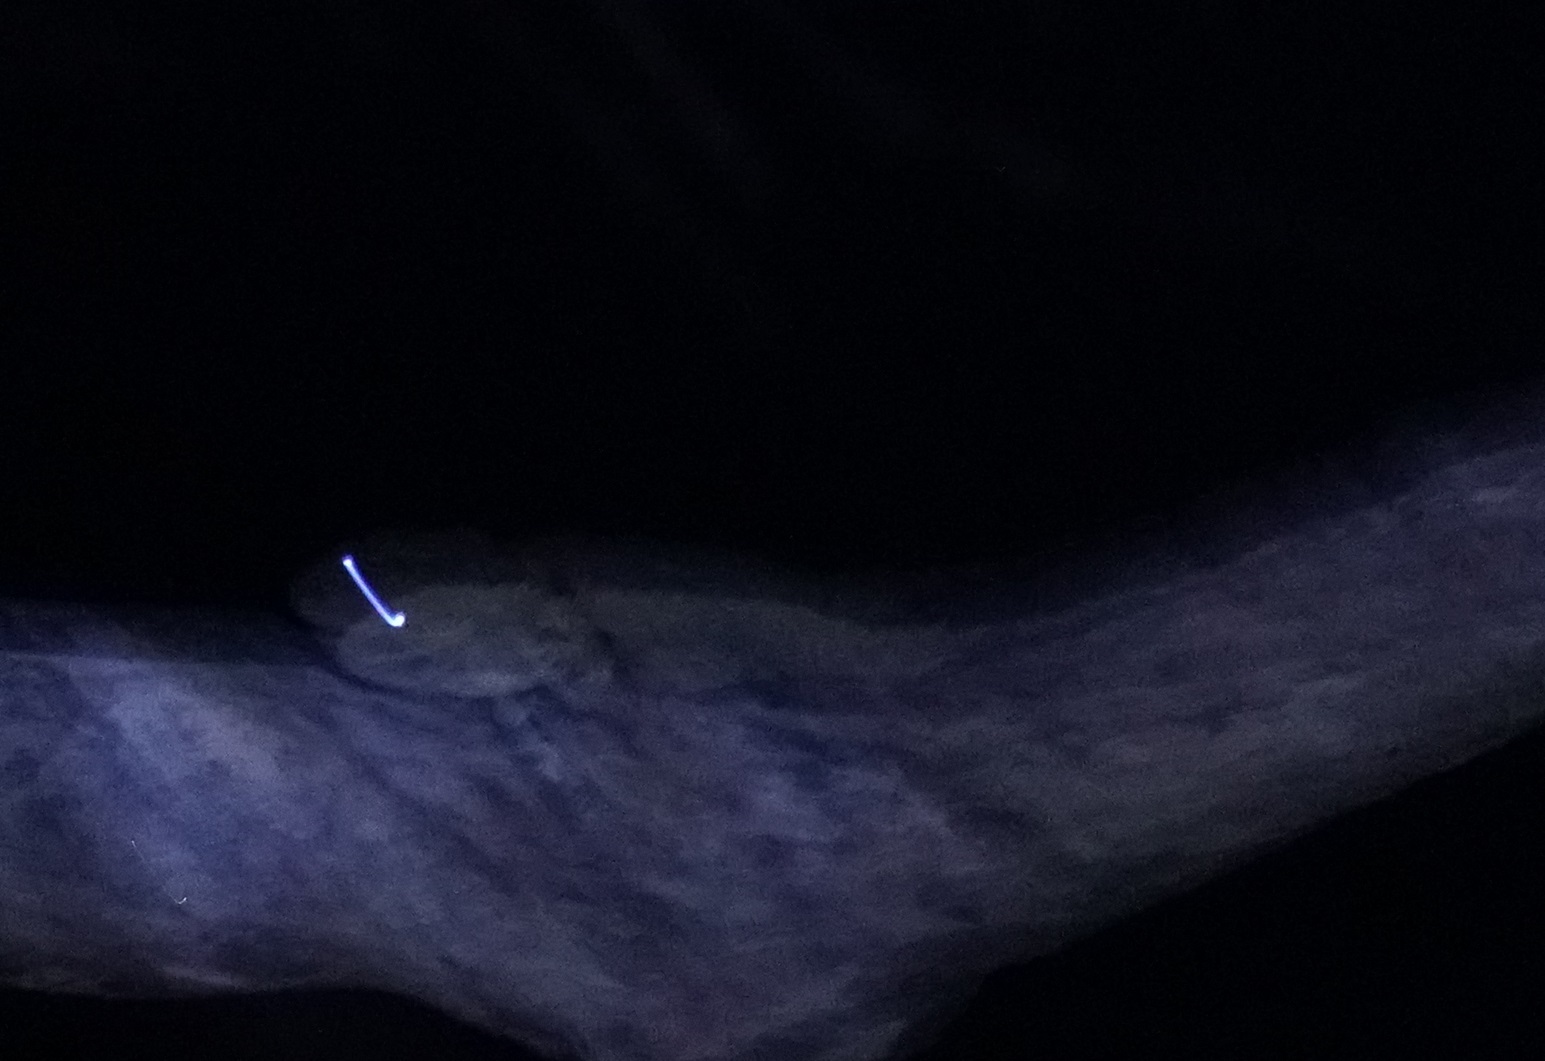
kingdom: Animalia
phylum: Chordata
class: Squamata
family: Agamidae
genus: Intellagama
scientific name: Intellagama lesueurii
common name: Eastern water dragon
